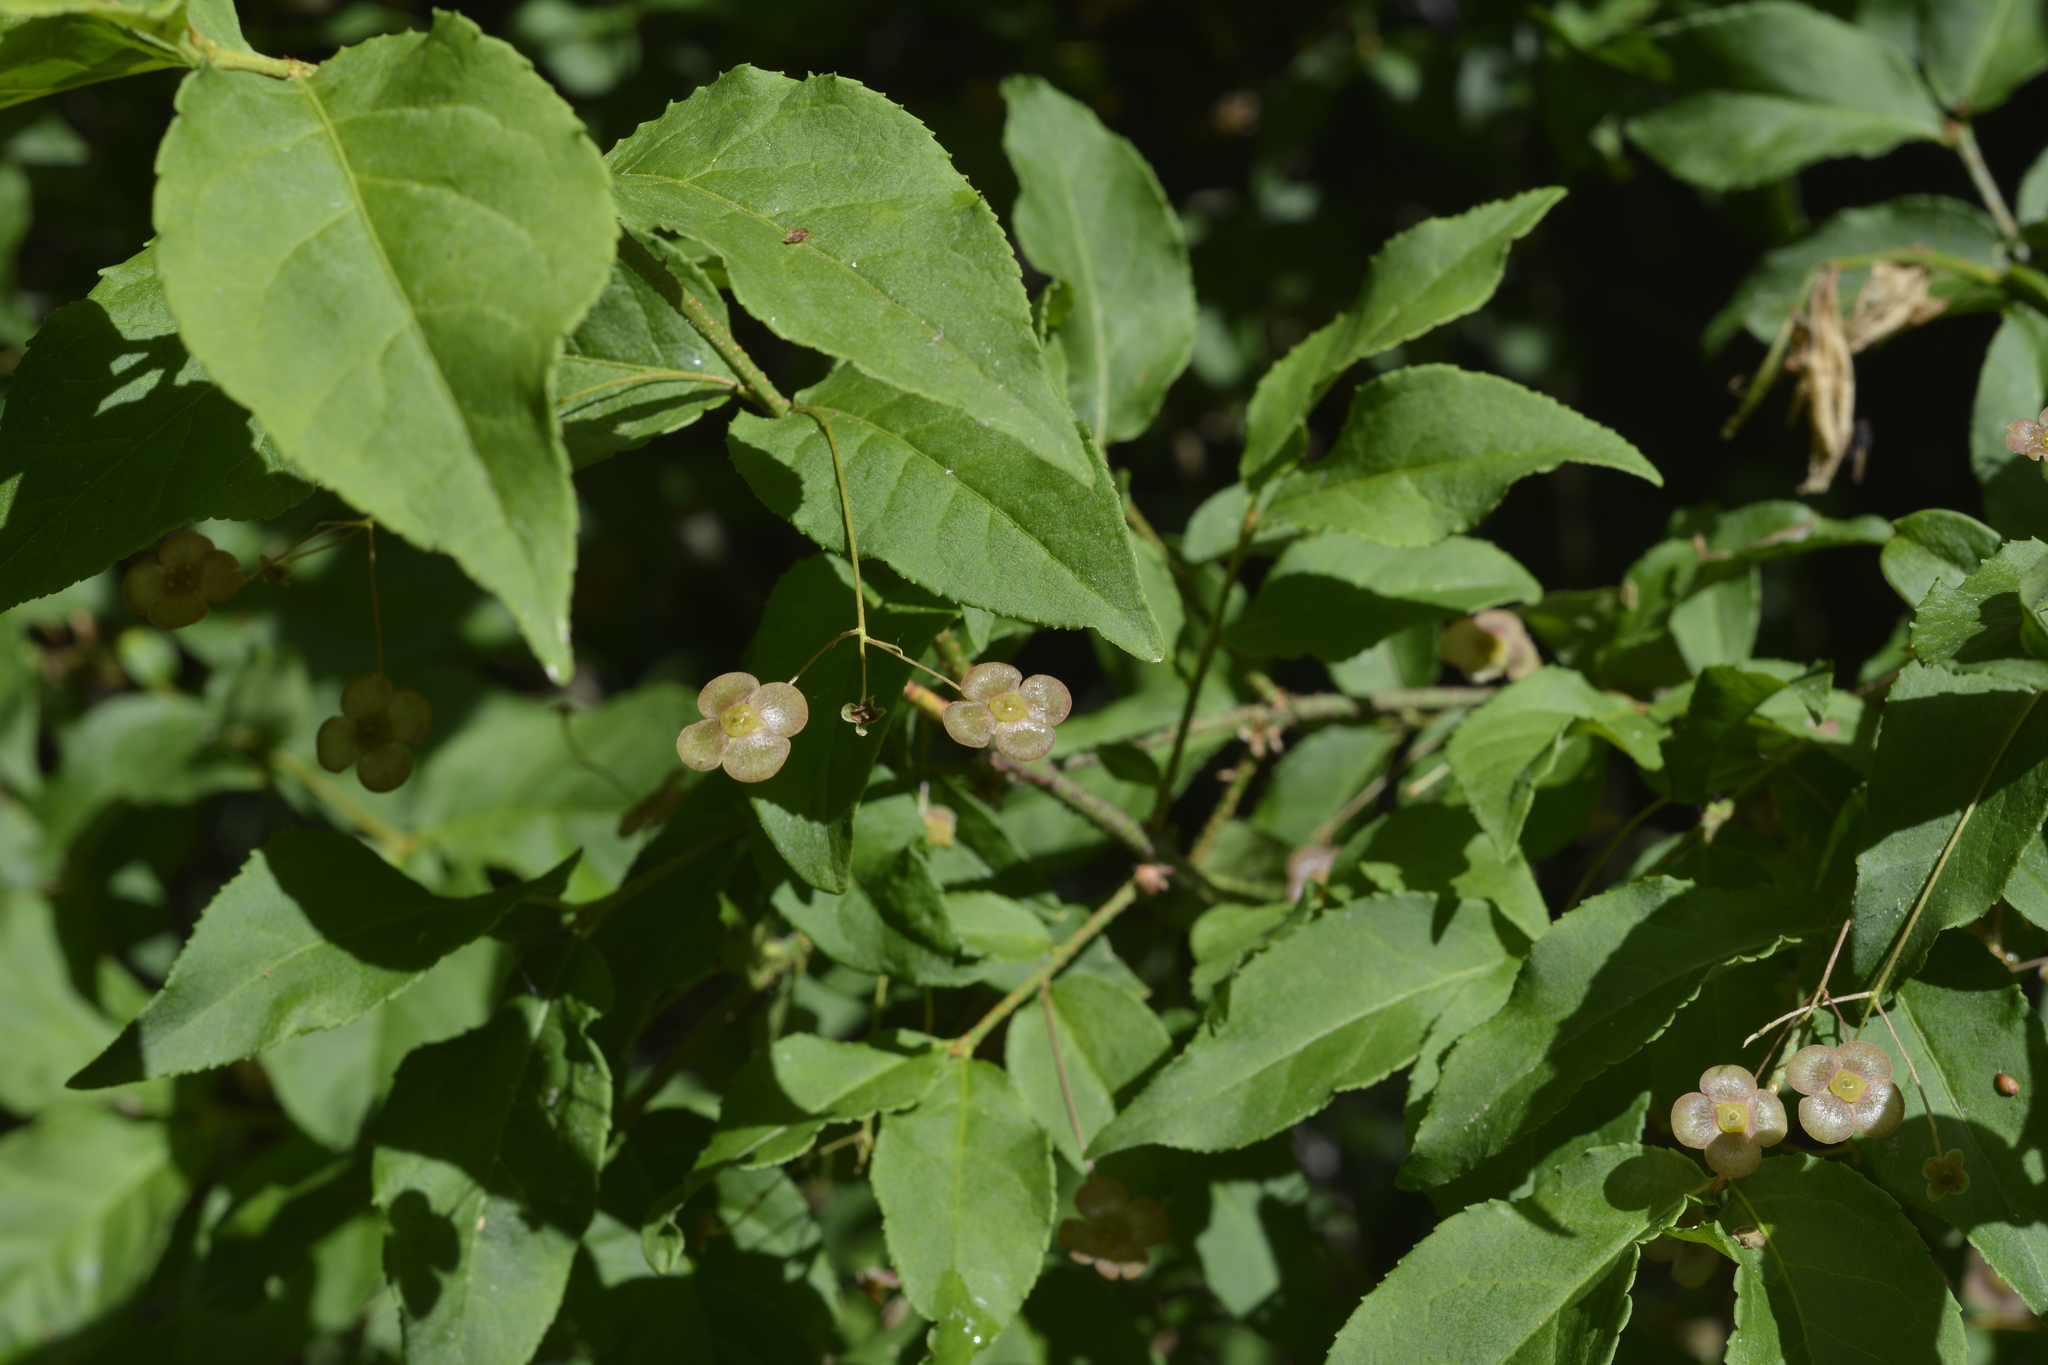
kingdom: Plantae
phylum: Tracheophyta
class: Magnoliopsida
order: Celastrales
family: Celastraceae
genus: Euonymus
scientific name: Euonymus verrucosus
